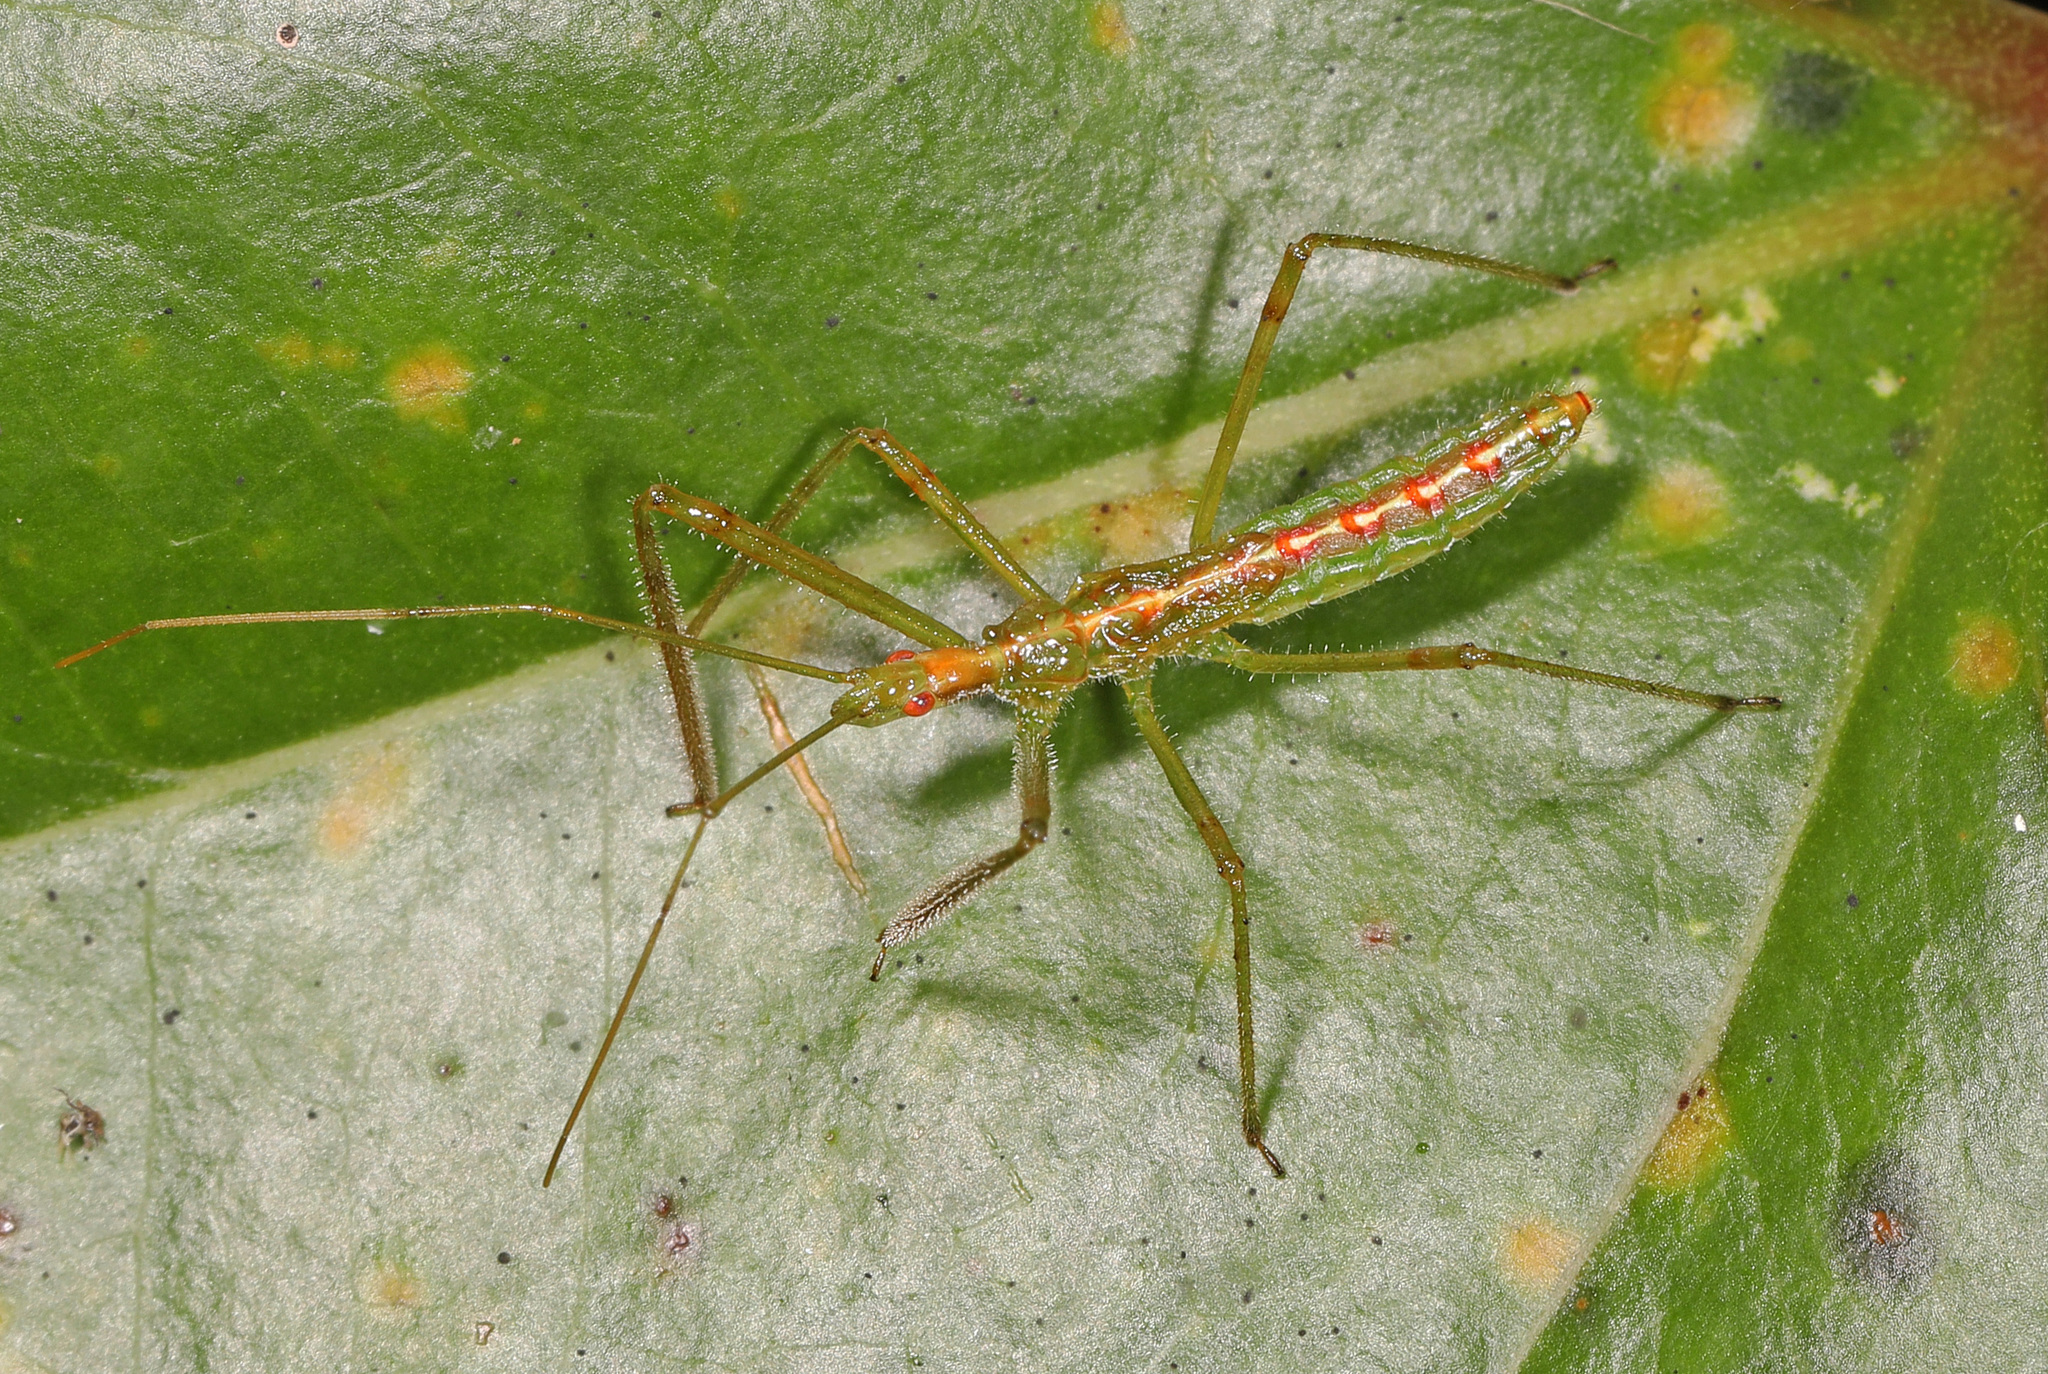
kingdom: Animalia
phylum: Arthropoda
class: Insecta
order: Hemiptera
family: Reduviidae
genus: Zelus
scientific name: Zelus luridus
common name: Pale green assassin bug
